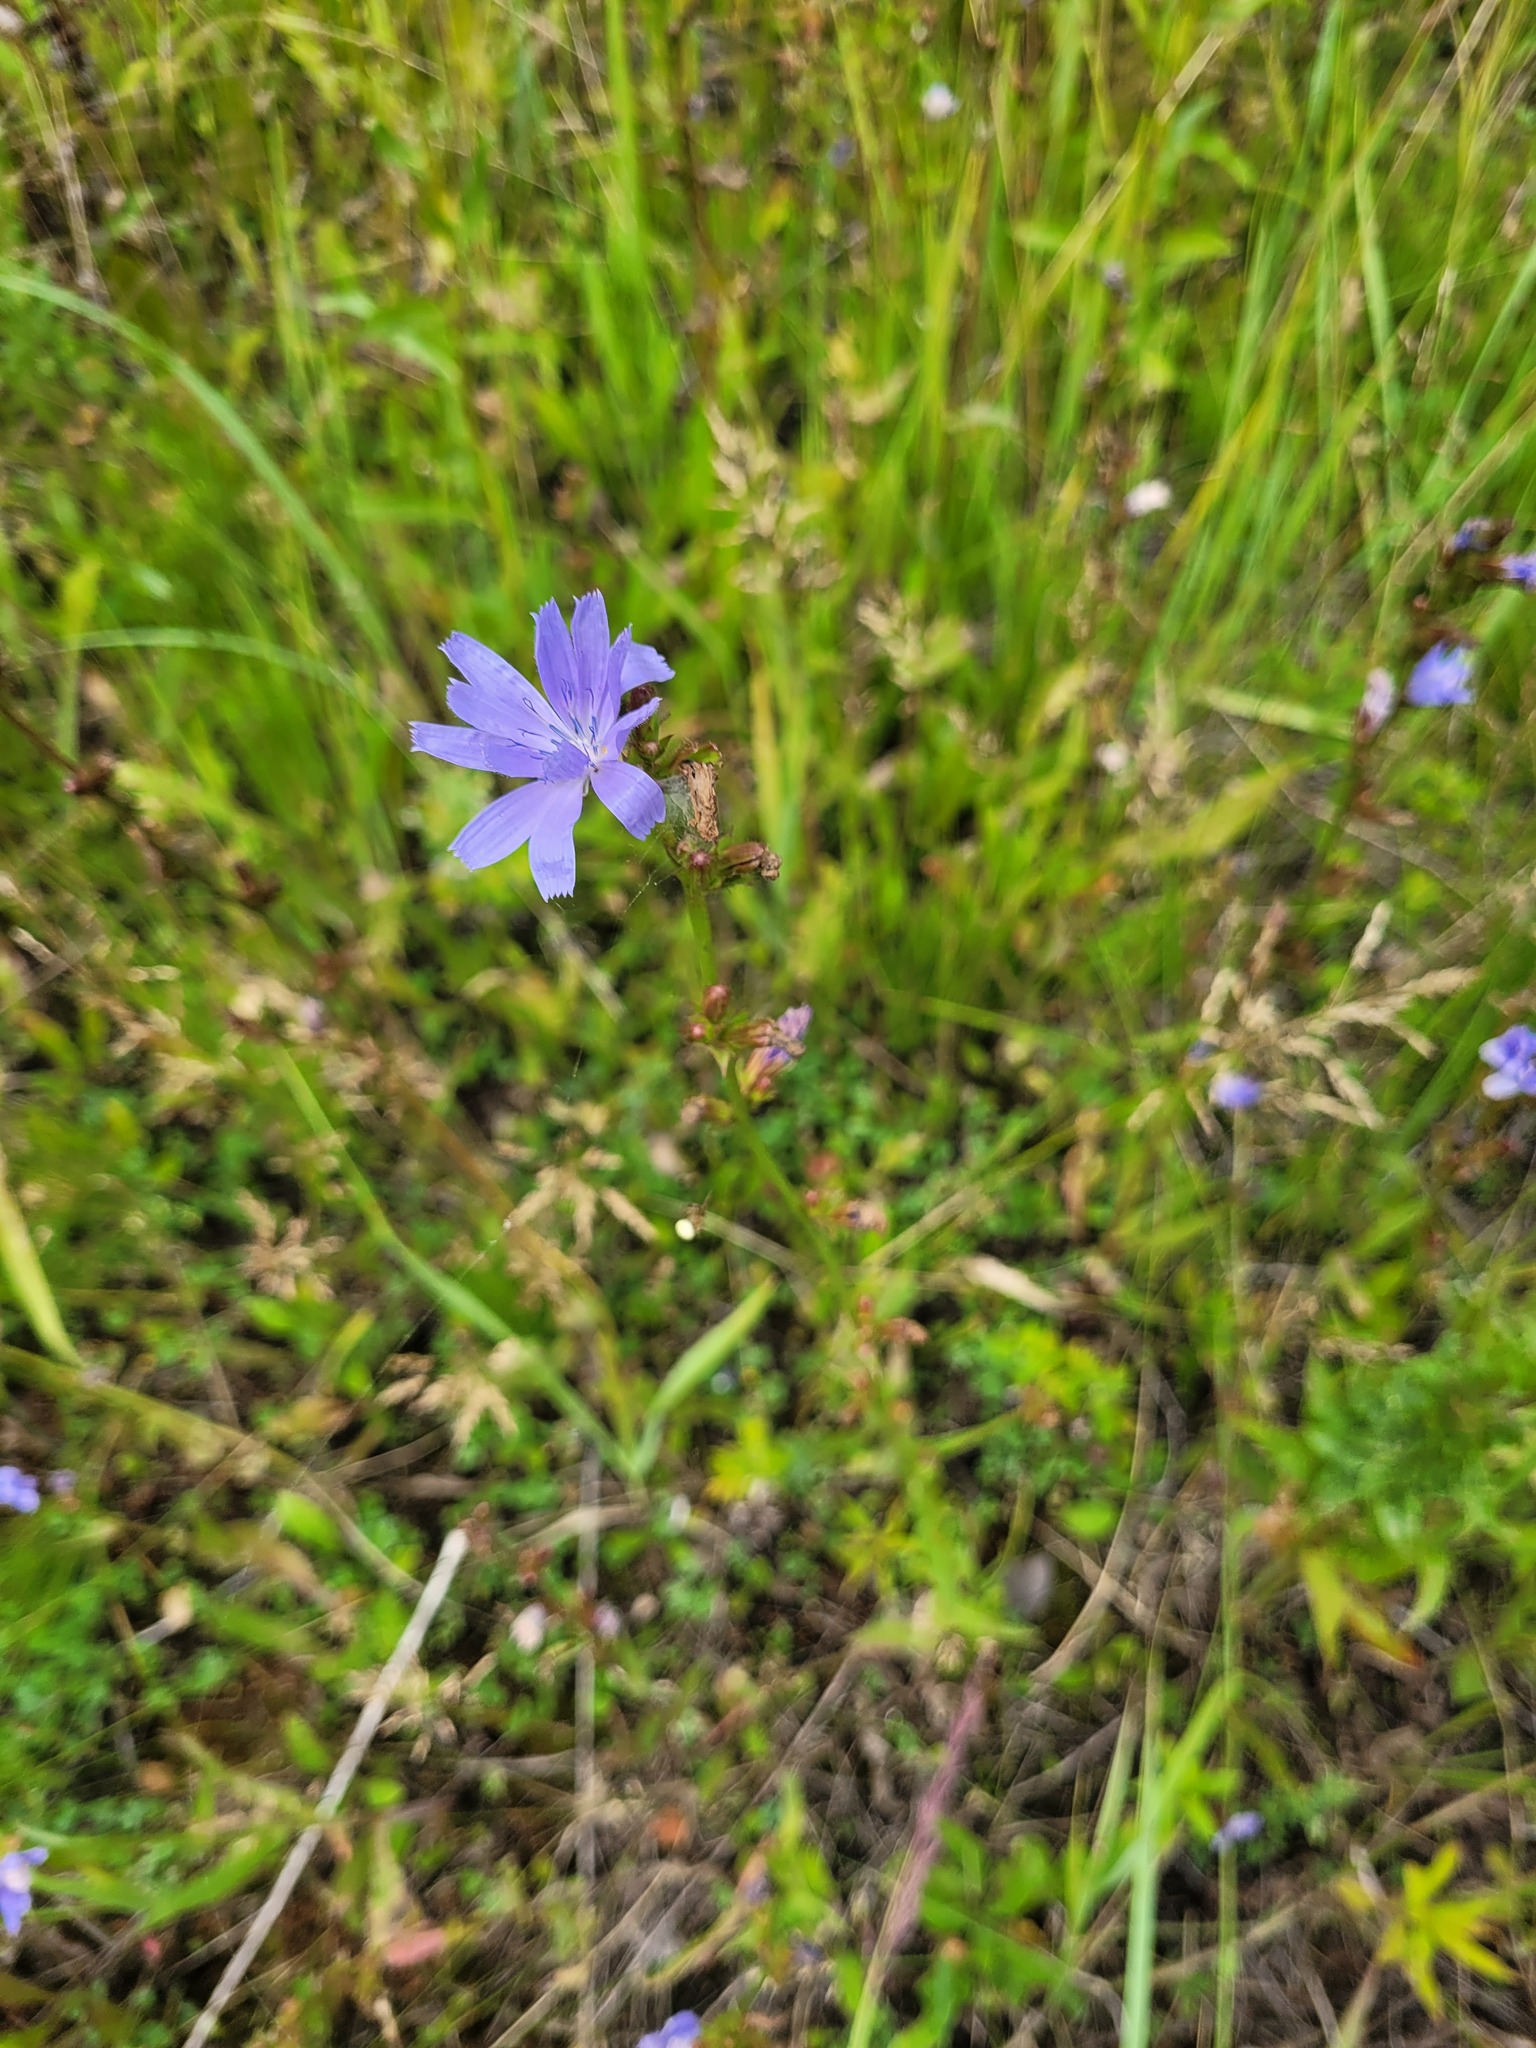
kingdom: Plantae
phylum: Tracheophyta
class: Magnoliopsida
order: Asterales
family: Asteraceae
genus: Cichorium
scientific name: Cichorium intybus
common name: Chicory
